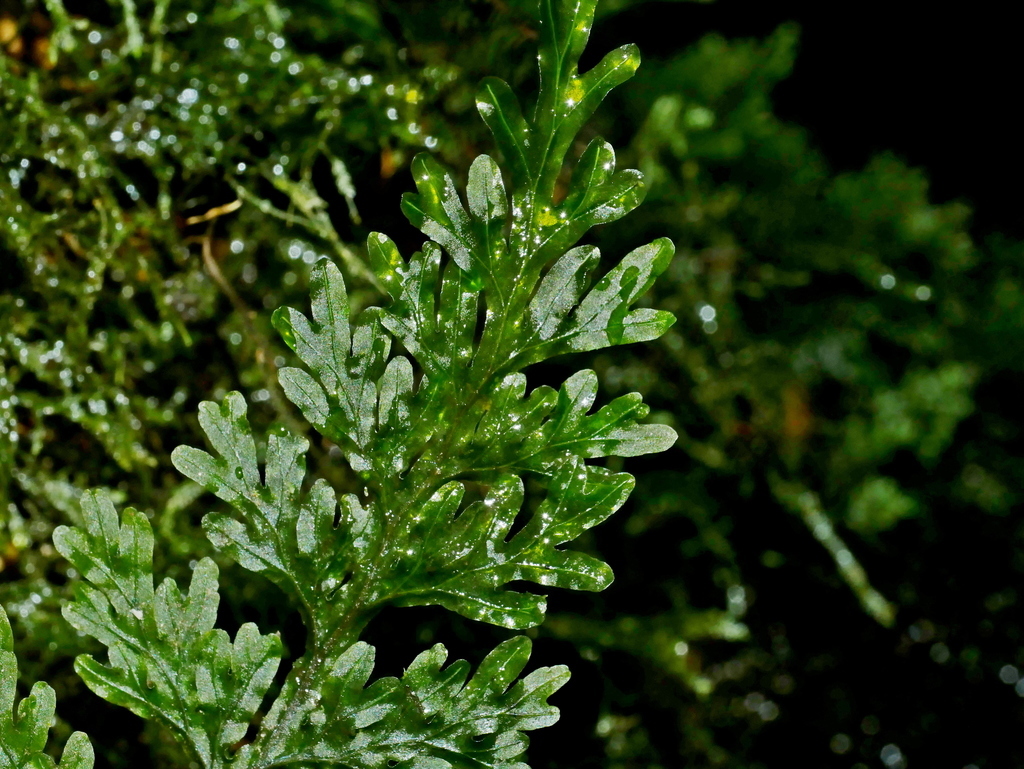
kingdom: Plantae
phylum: Tracheophyta
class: Polypodiopsida
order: Hymenophyllales
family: Hymenophyllaceae
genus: Hymenophyllum
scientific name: Hymenophyllum badium
